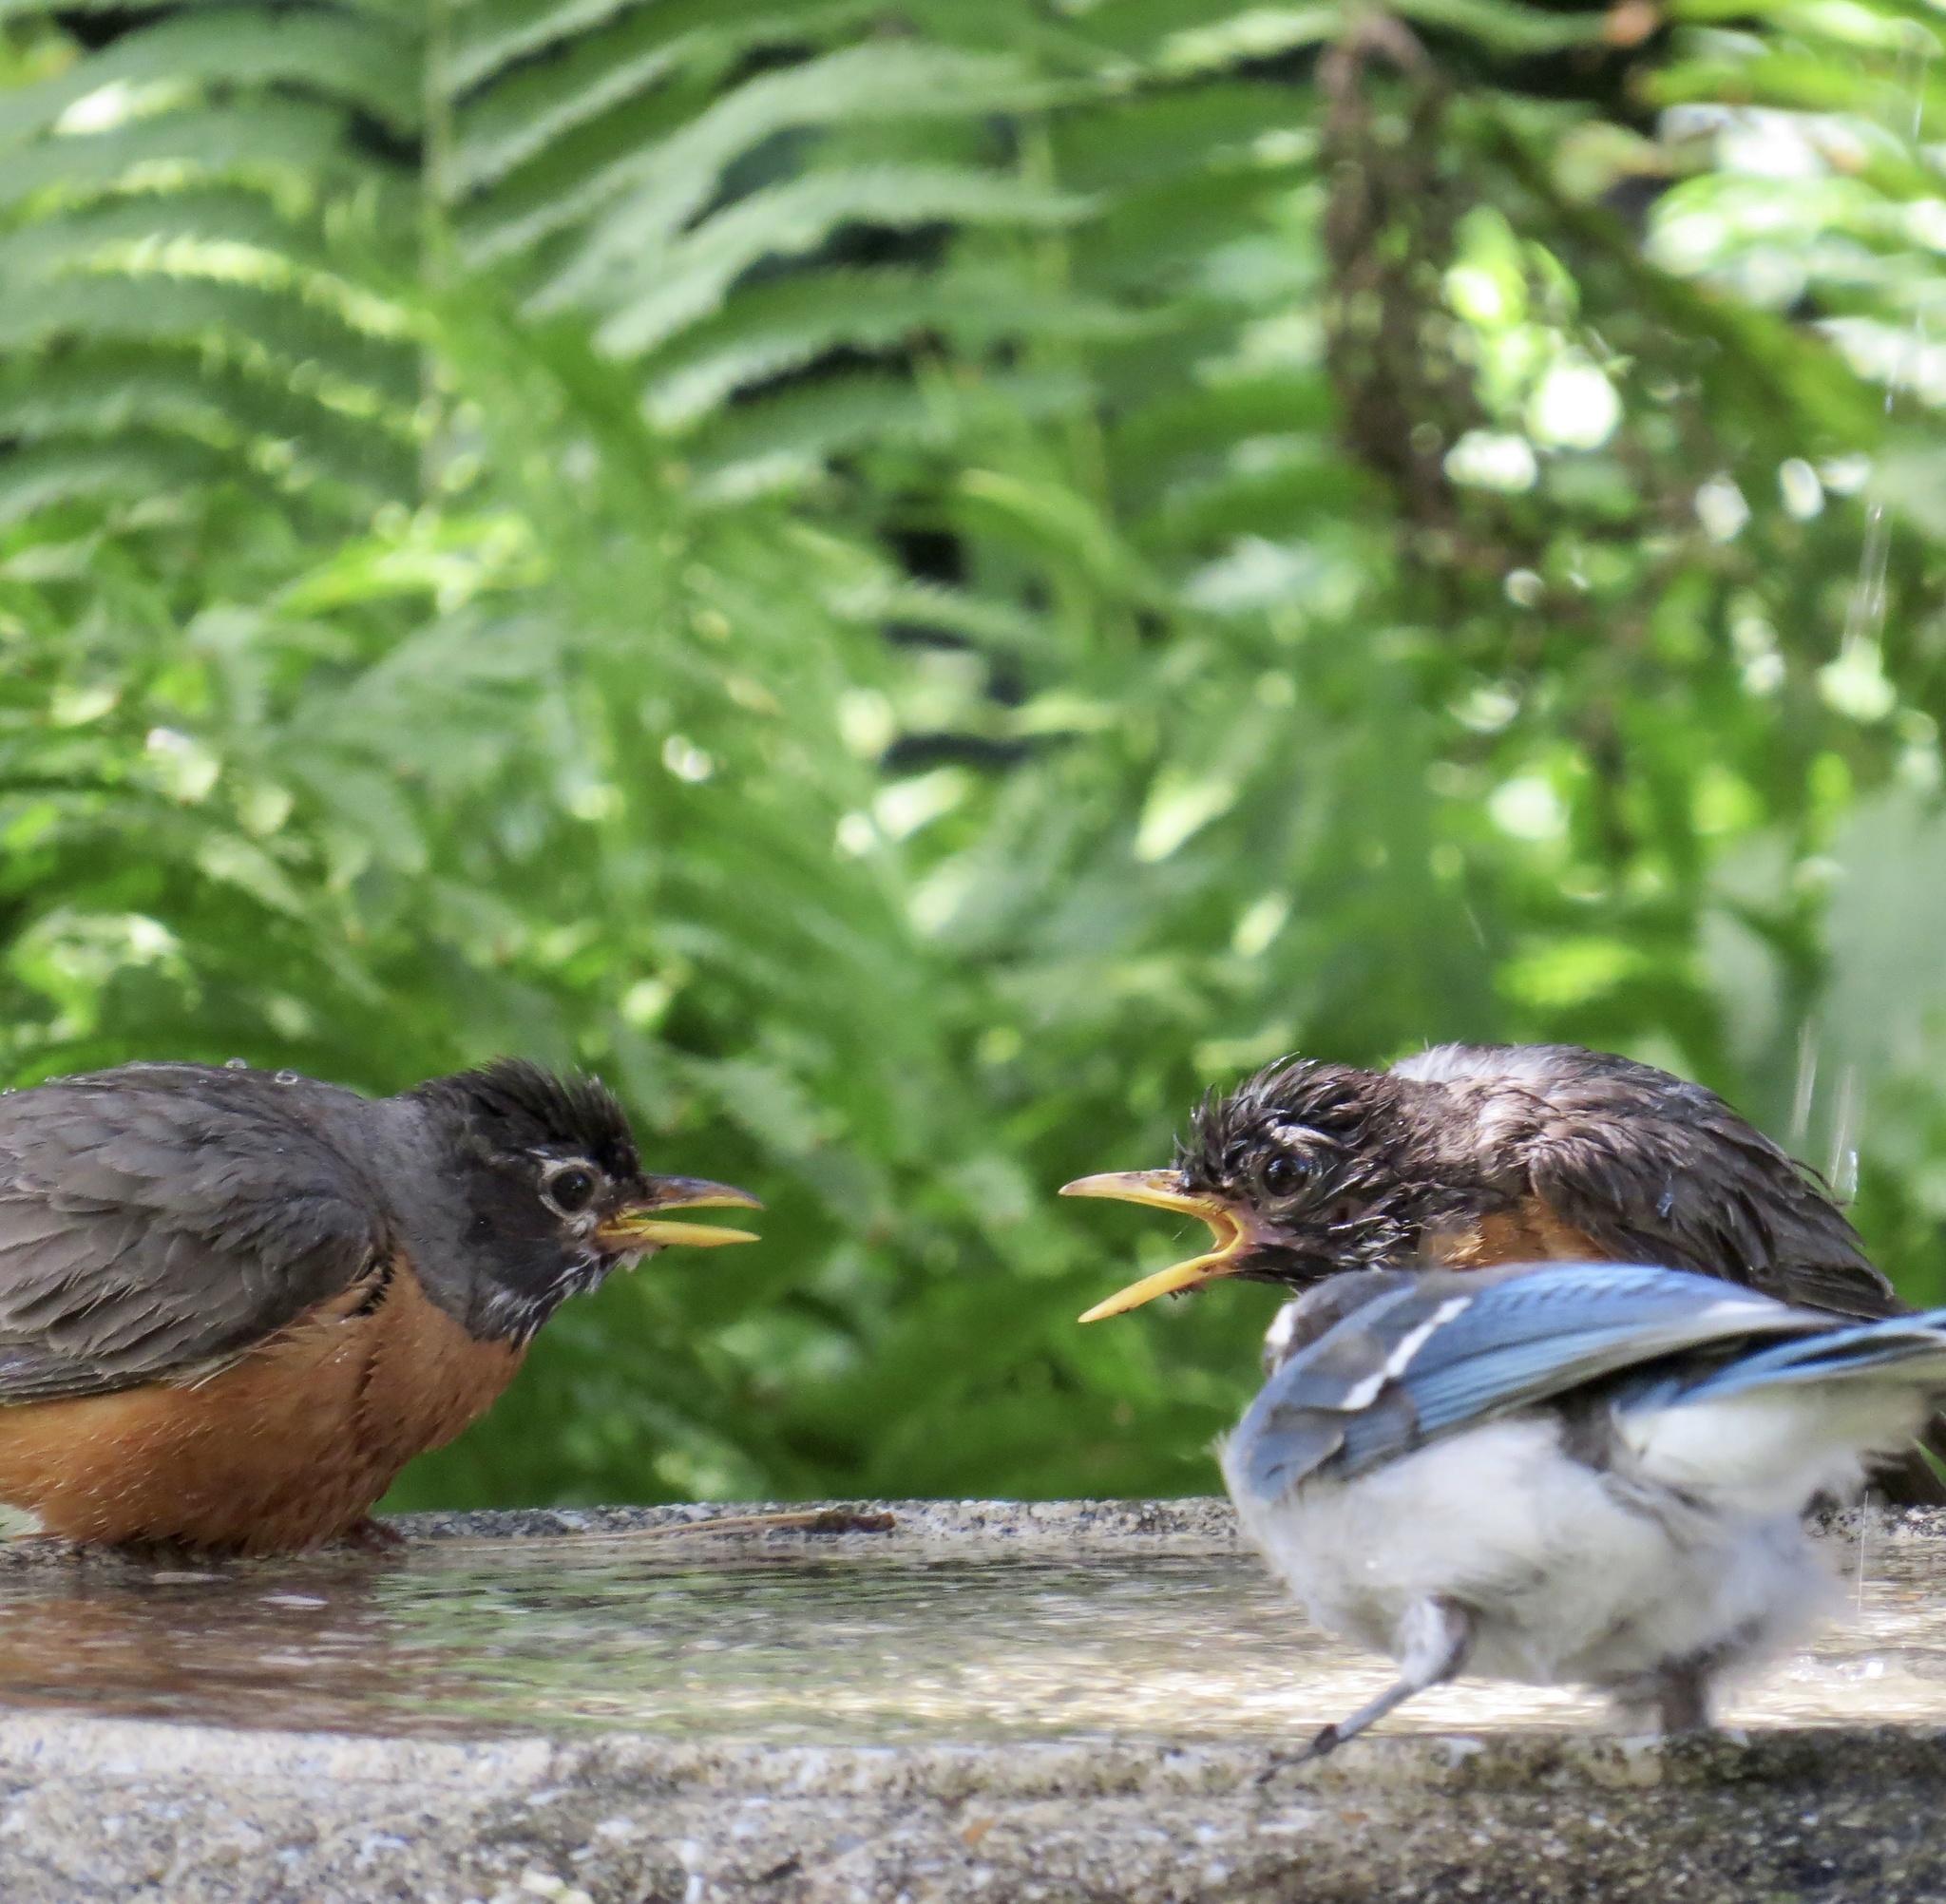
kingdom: Animalia
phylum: Chordata
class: Aves
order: Passeriformes
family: Turdidae
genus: Turdus
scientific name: Turdus migratorius
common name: American robin
